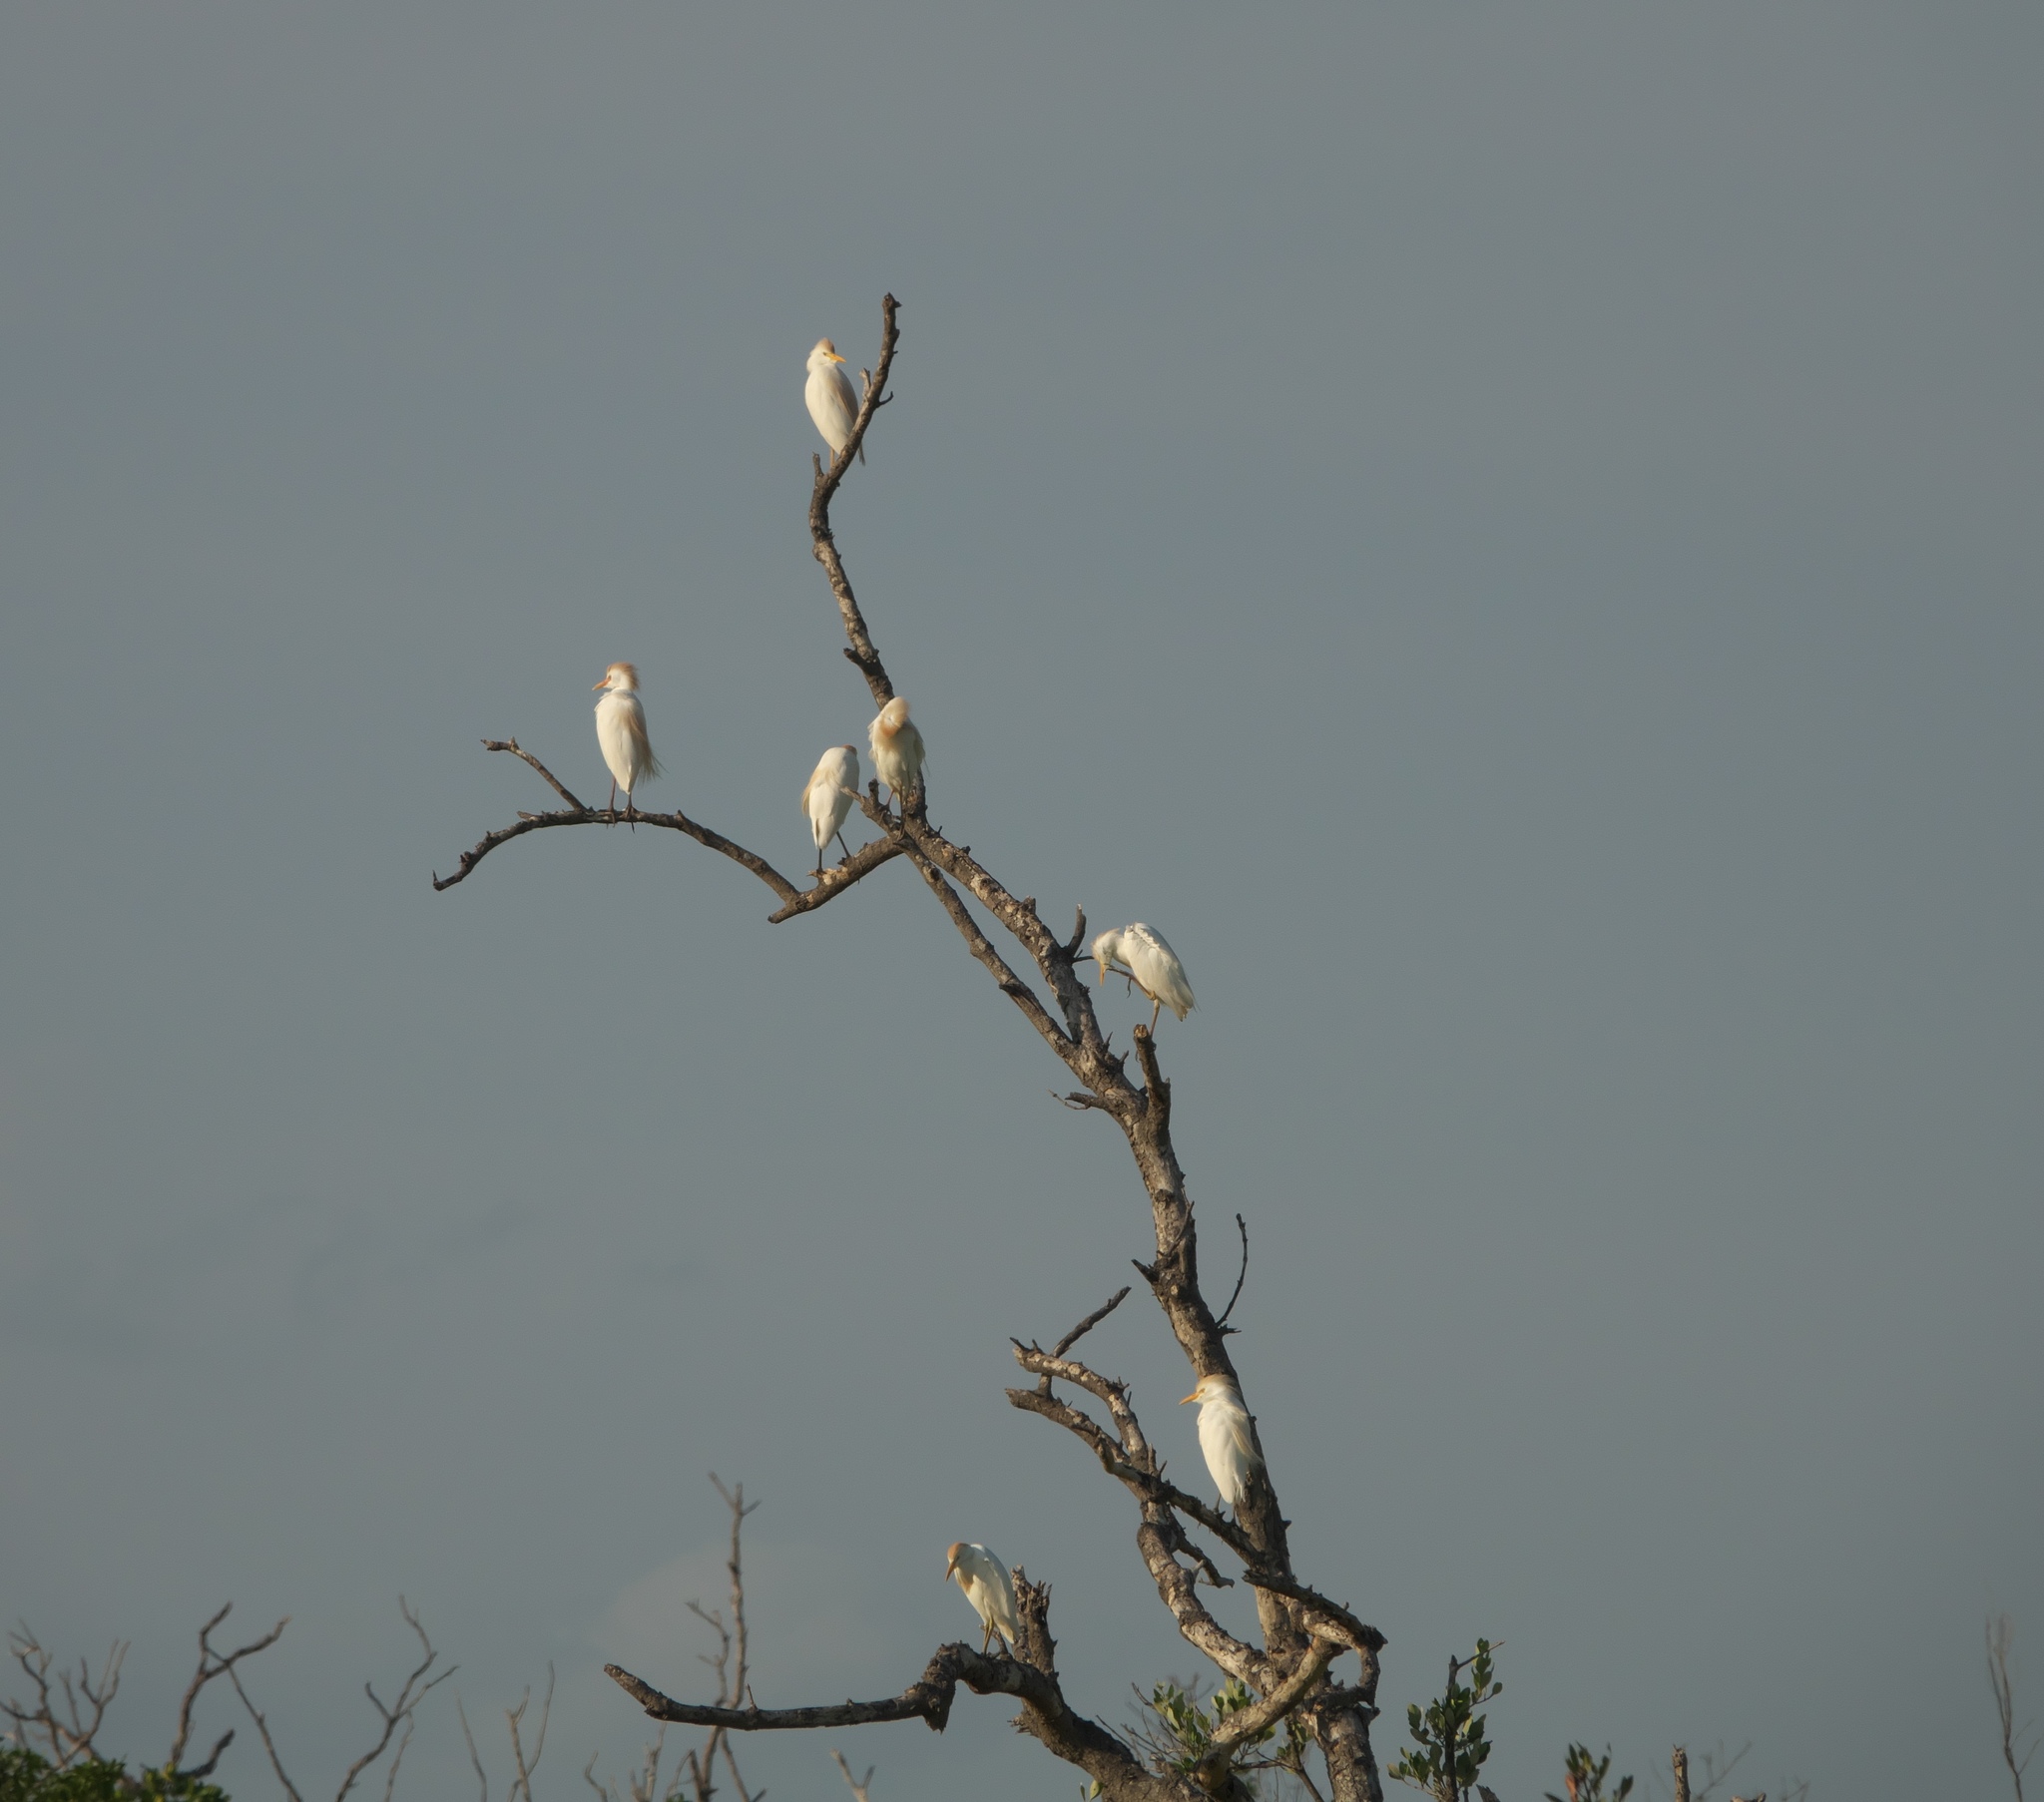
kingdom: Animalia
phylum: Chordata
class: Aves
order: Pelecaniformes
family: Ardeidae
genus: Bubulcus
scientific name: Bubulcus ibis
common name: Cattle egret
